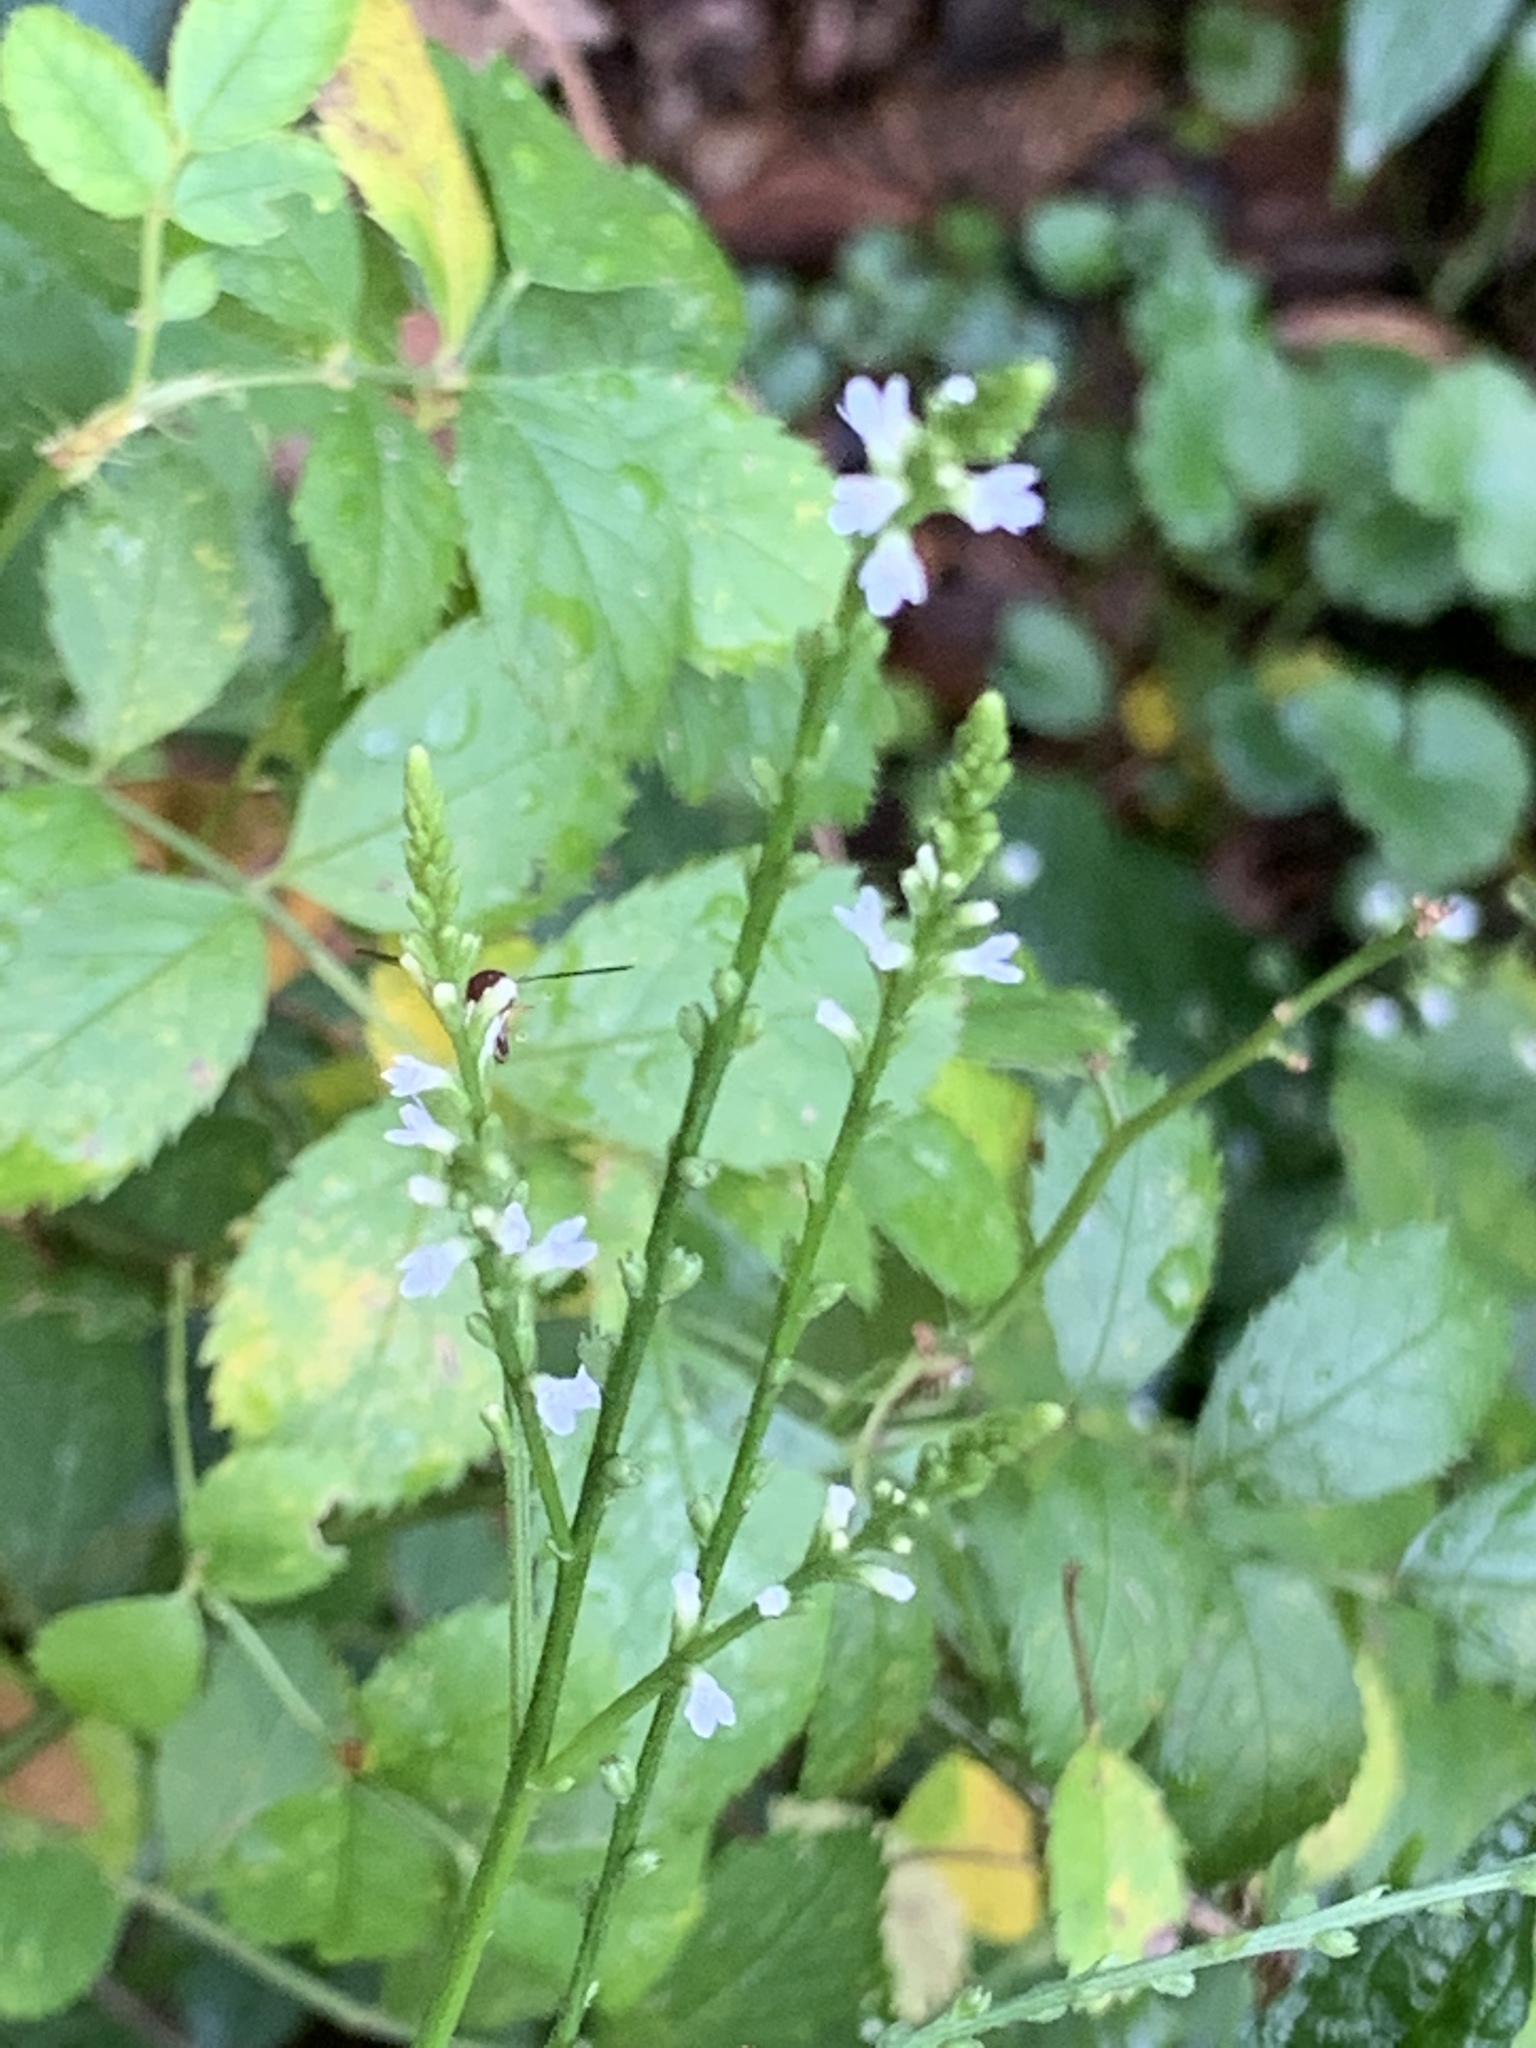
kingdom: Plantae
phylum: Tracheophyta
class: Magnoliopsida
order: Lamiales
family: Verbenaceae
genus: Verbena
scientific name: Verbena urticifolia
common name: Nettle-leaved vervain
